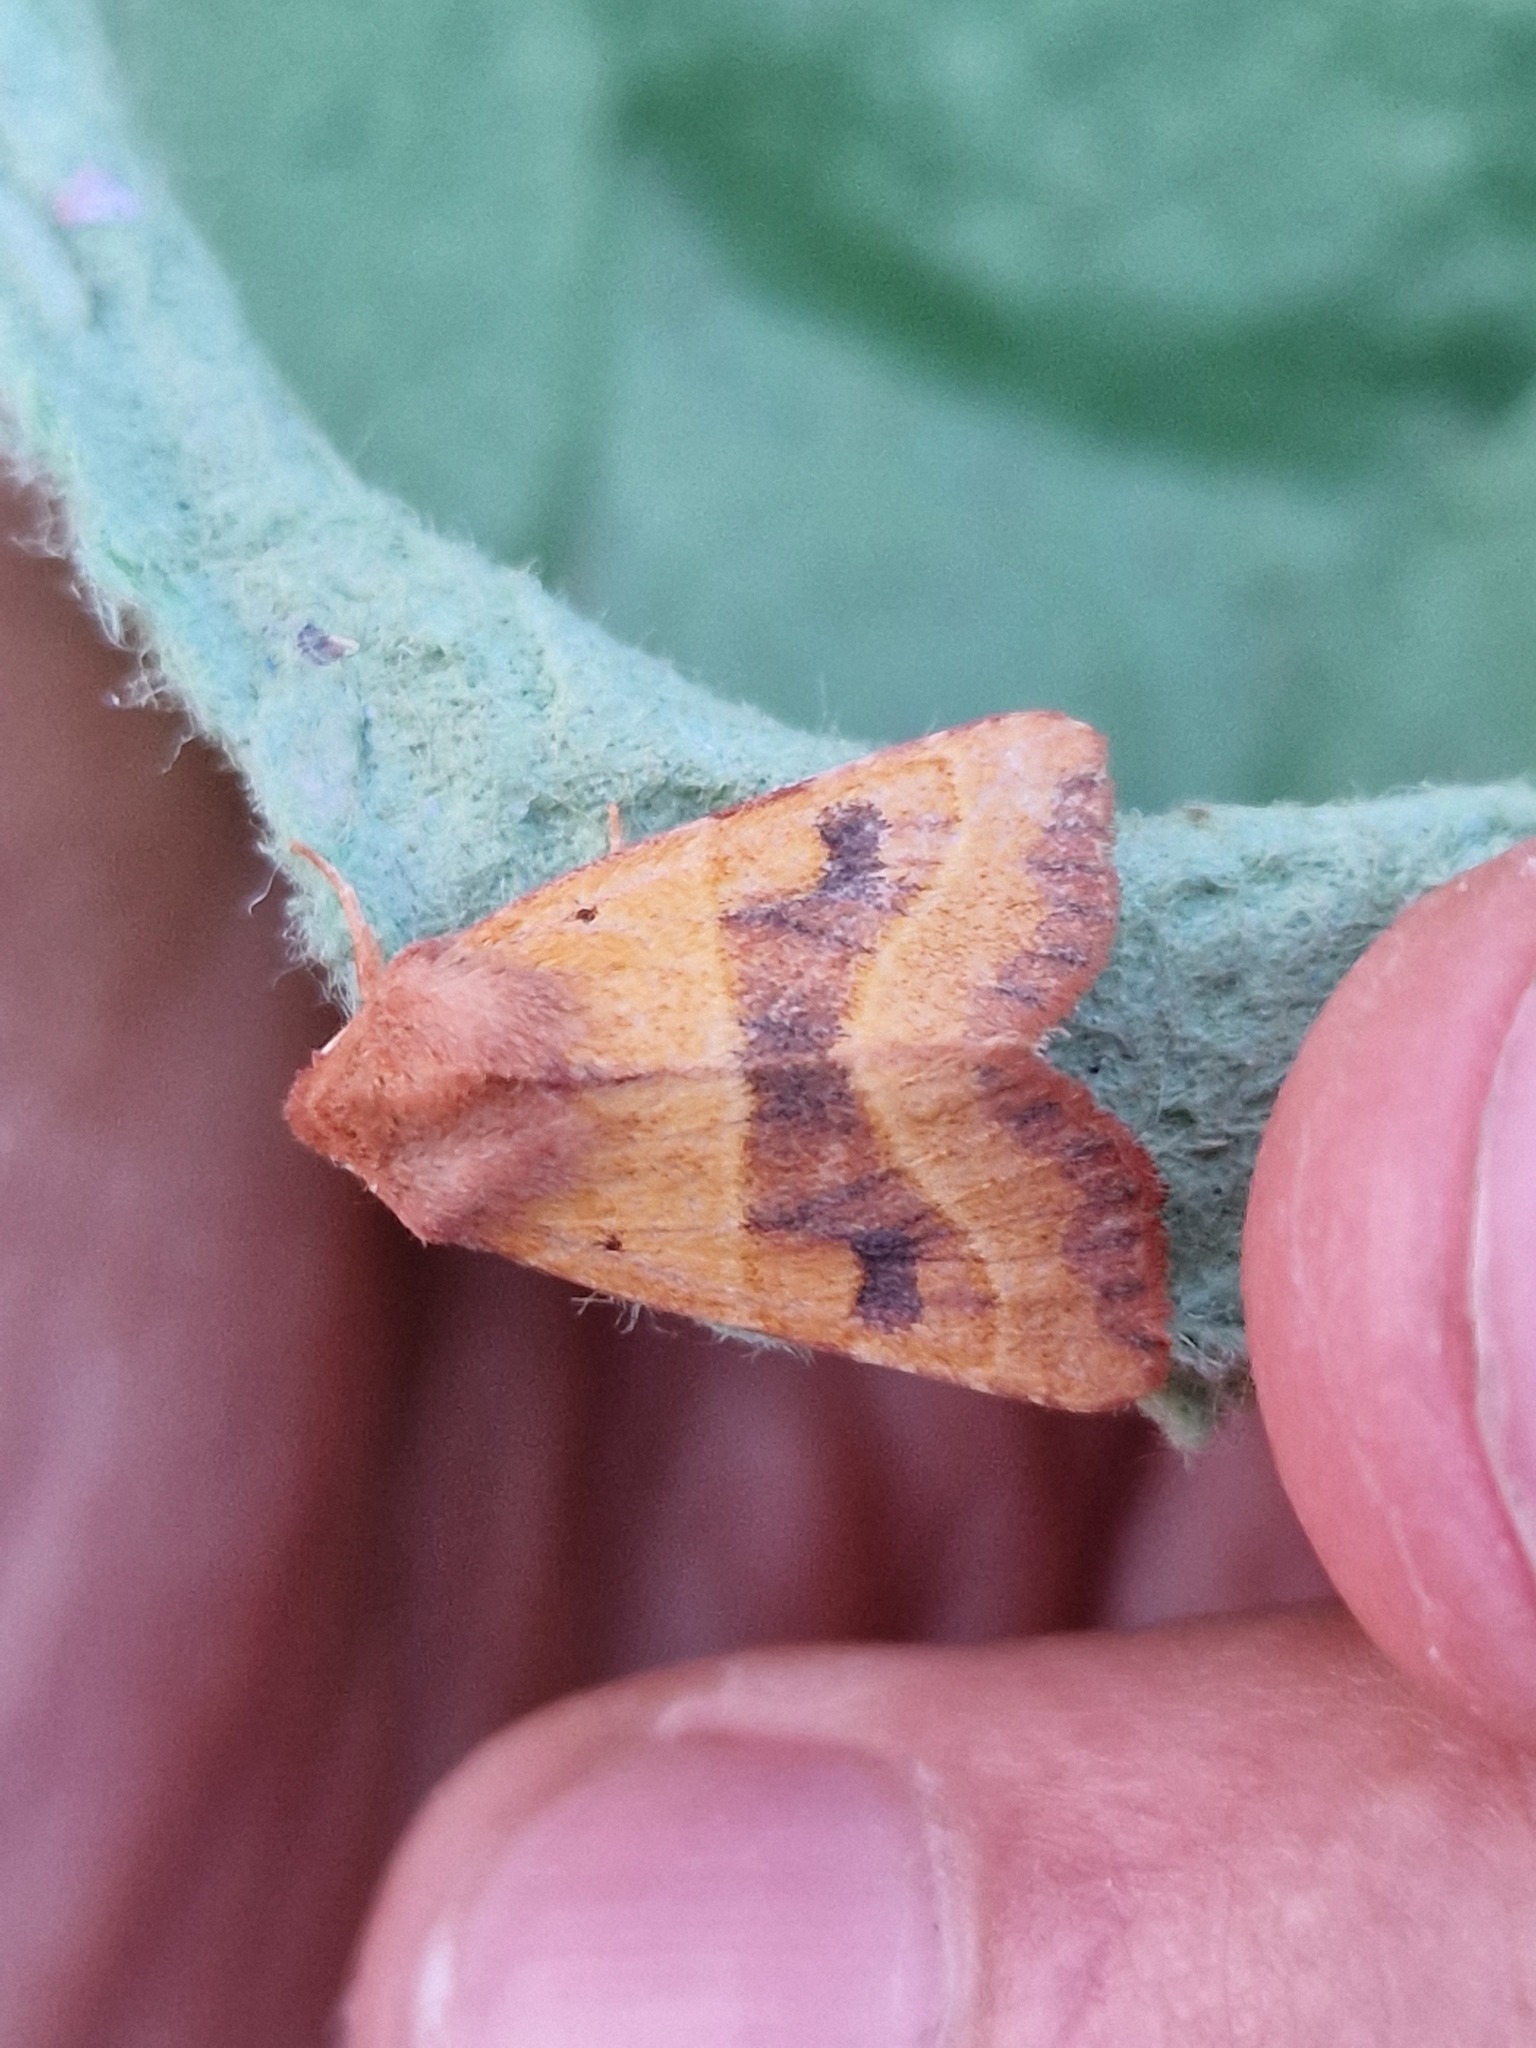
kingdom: Animalia
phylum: Arthropoda
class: Insecta
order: Lepidoptera
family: Noctuidae
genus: Atethmia
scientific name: Atethmia centrago
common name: Centre-barred sallow
